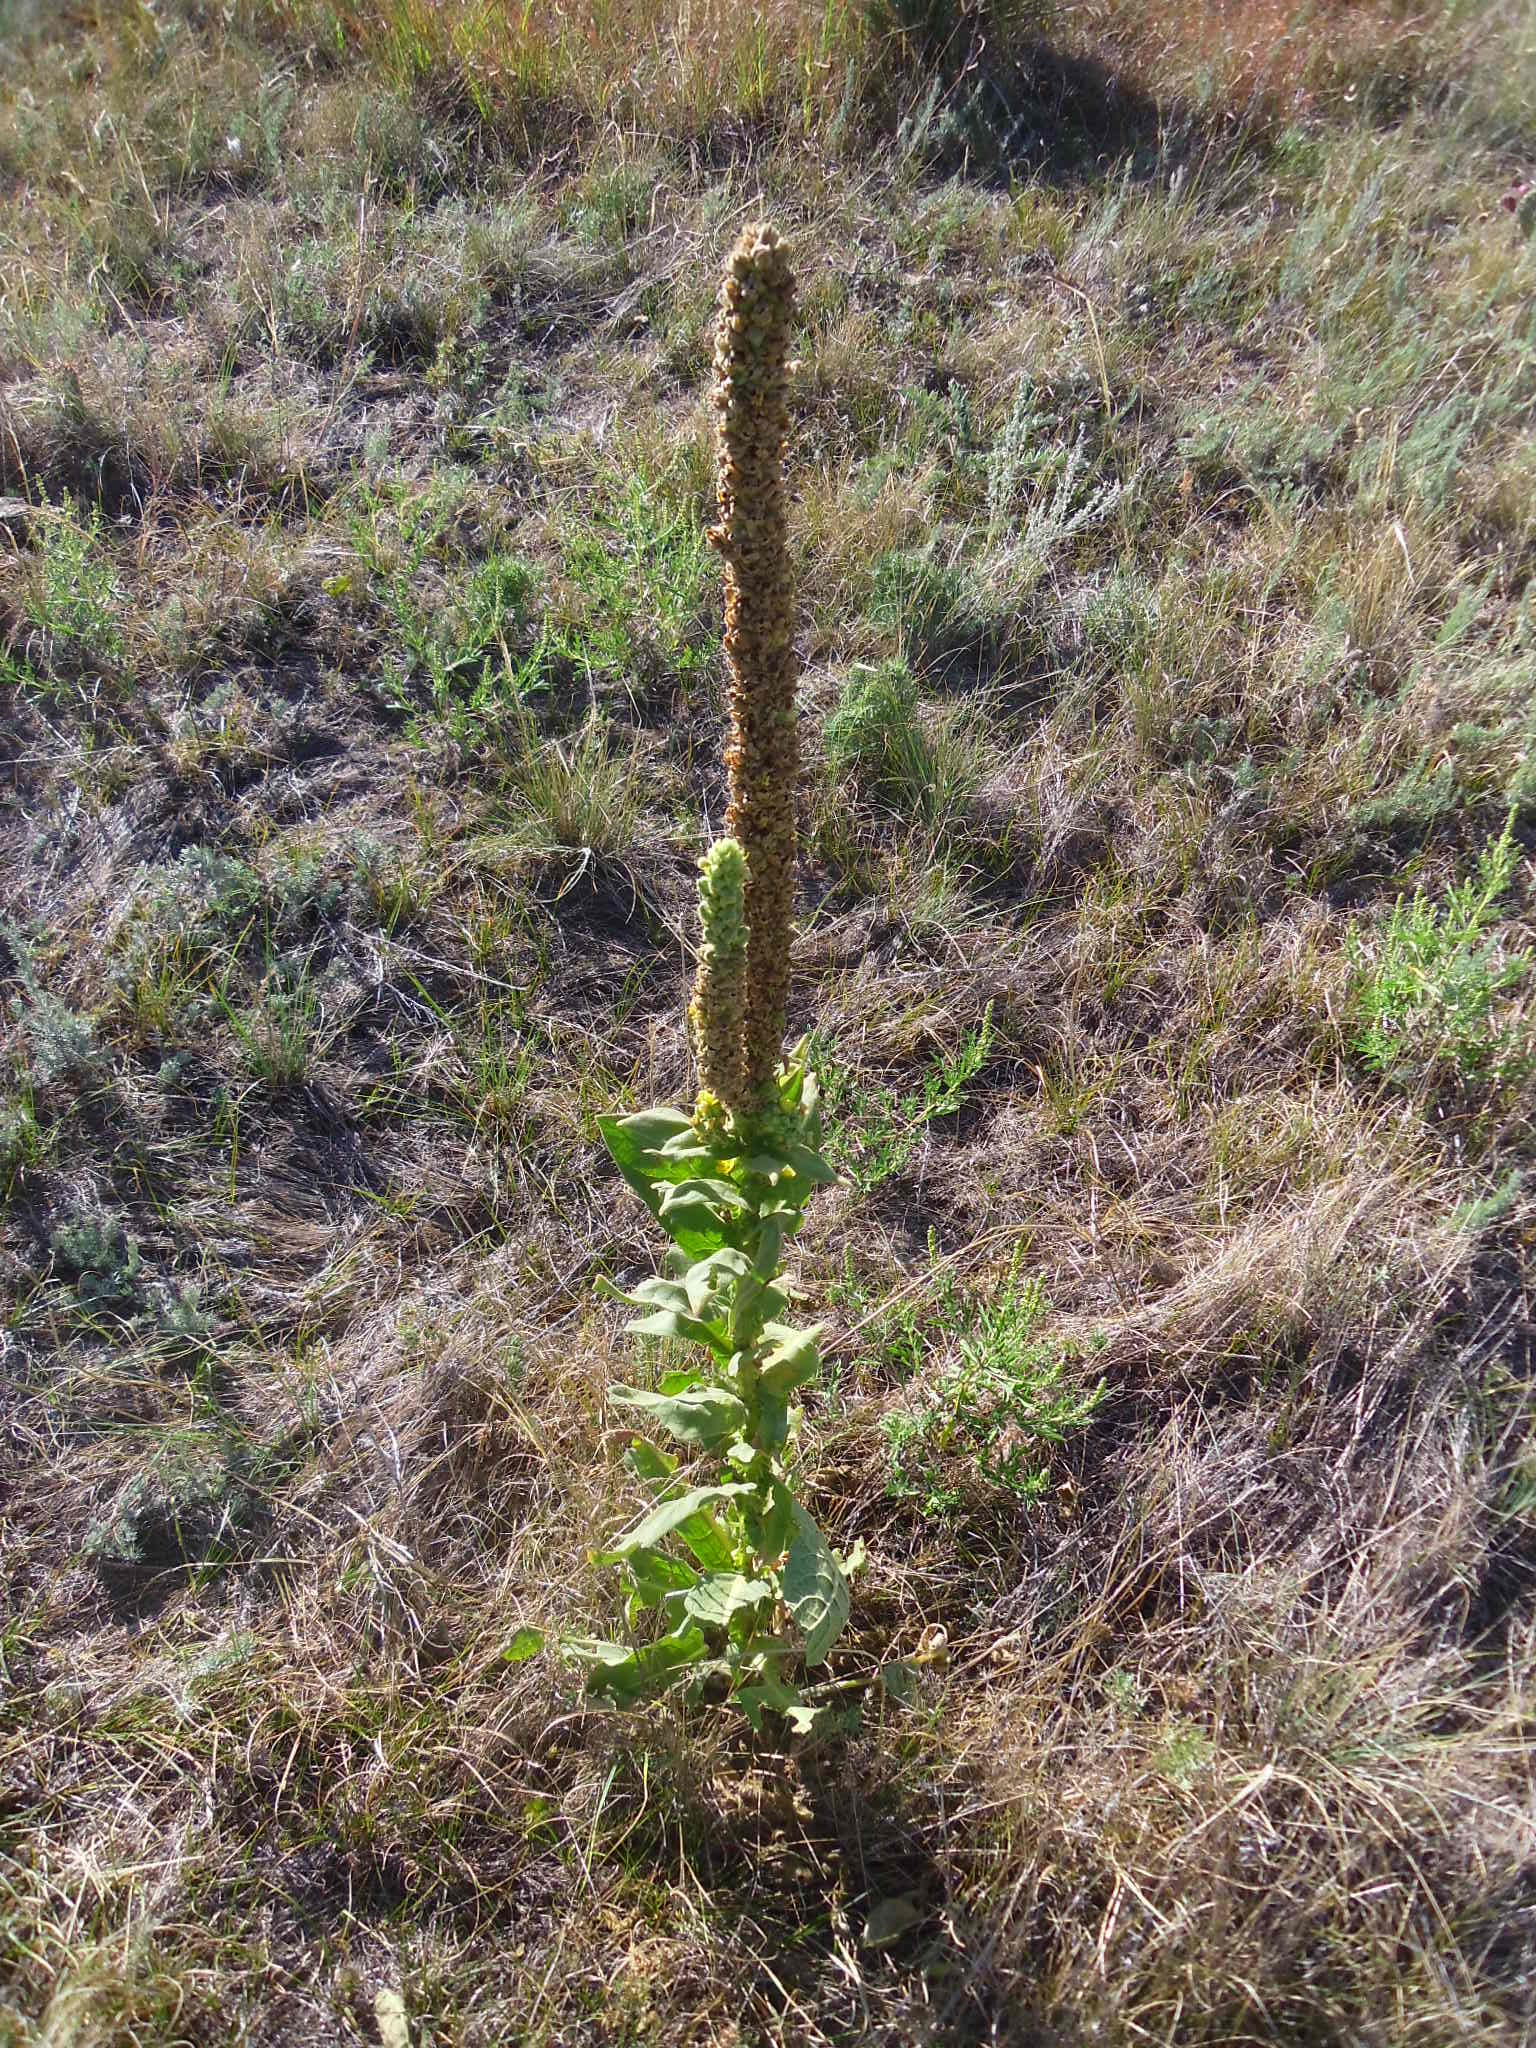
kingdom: Plantae
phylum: Tracheophyta
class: Magnoliopsida
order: Lamiales
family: Scrophulariaceae
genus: Verbascum
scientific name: Verbascum thapsus
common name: Common mullein
